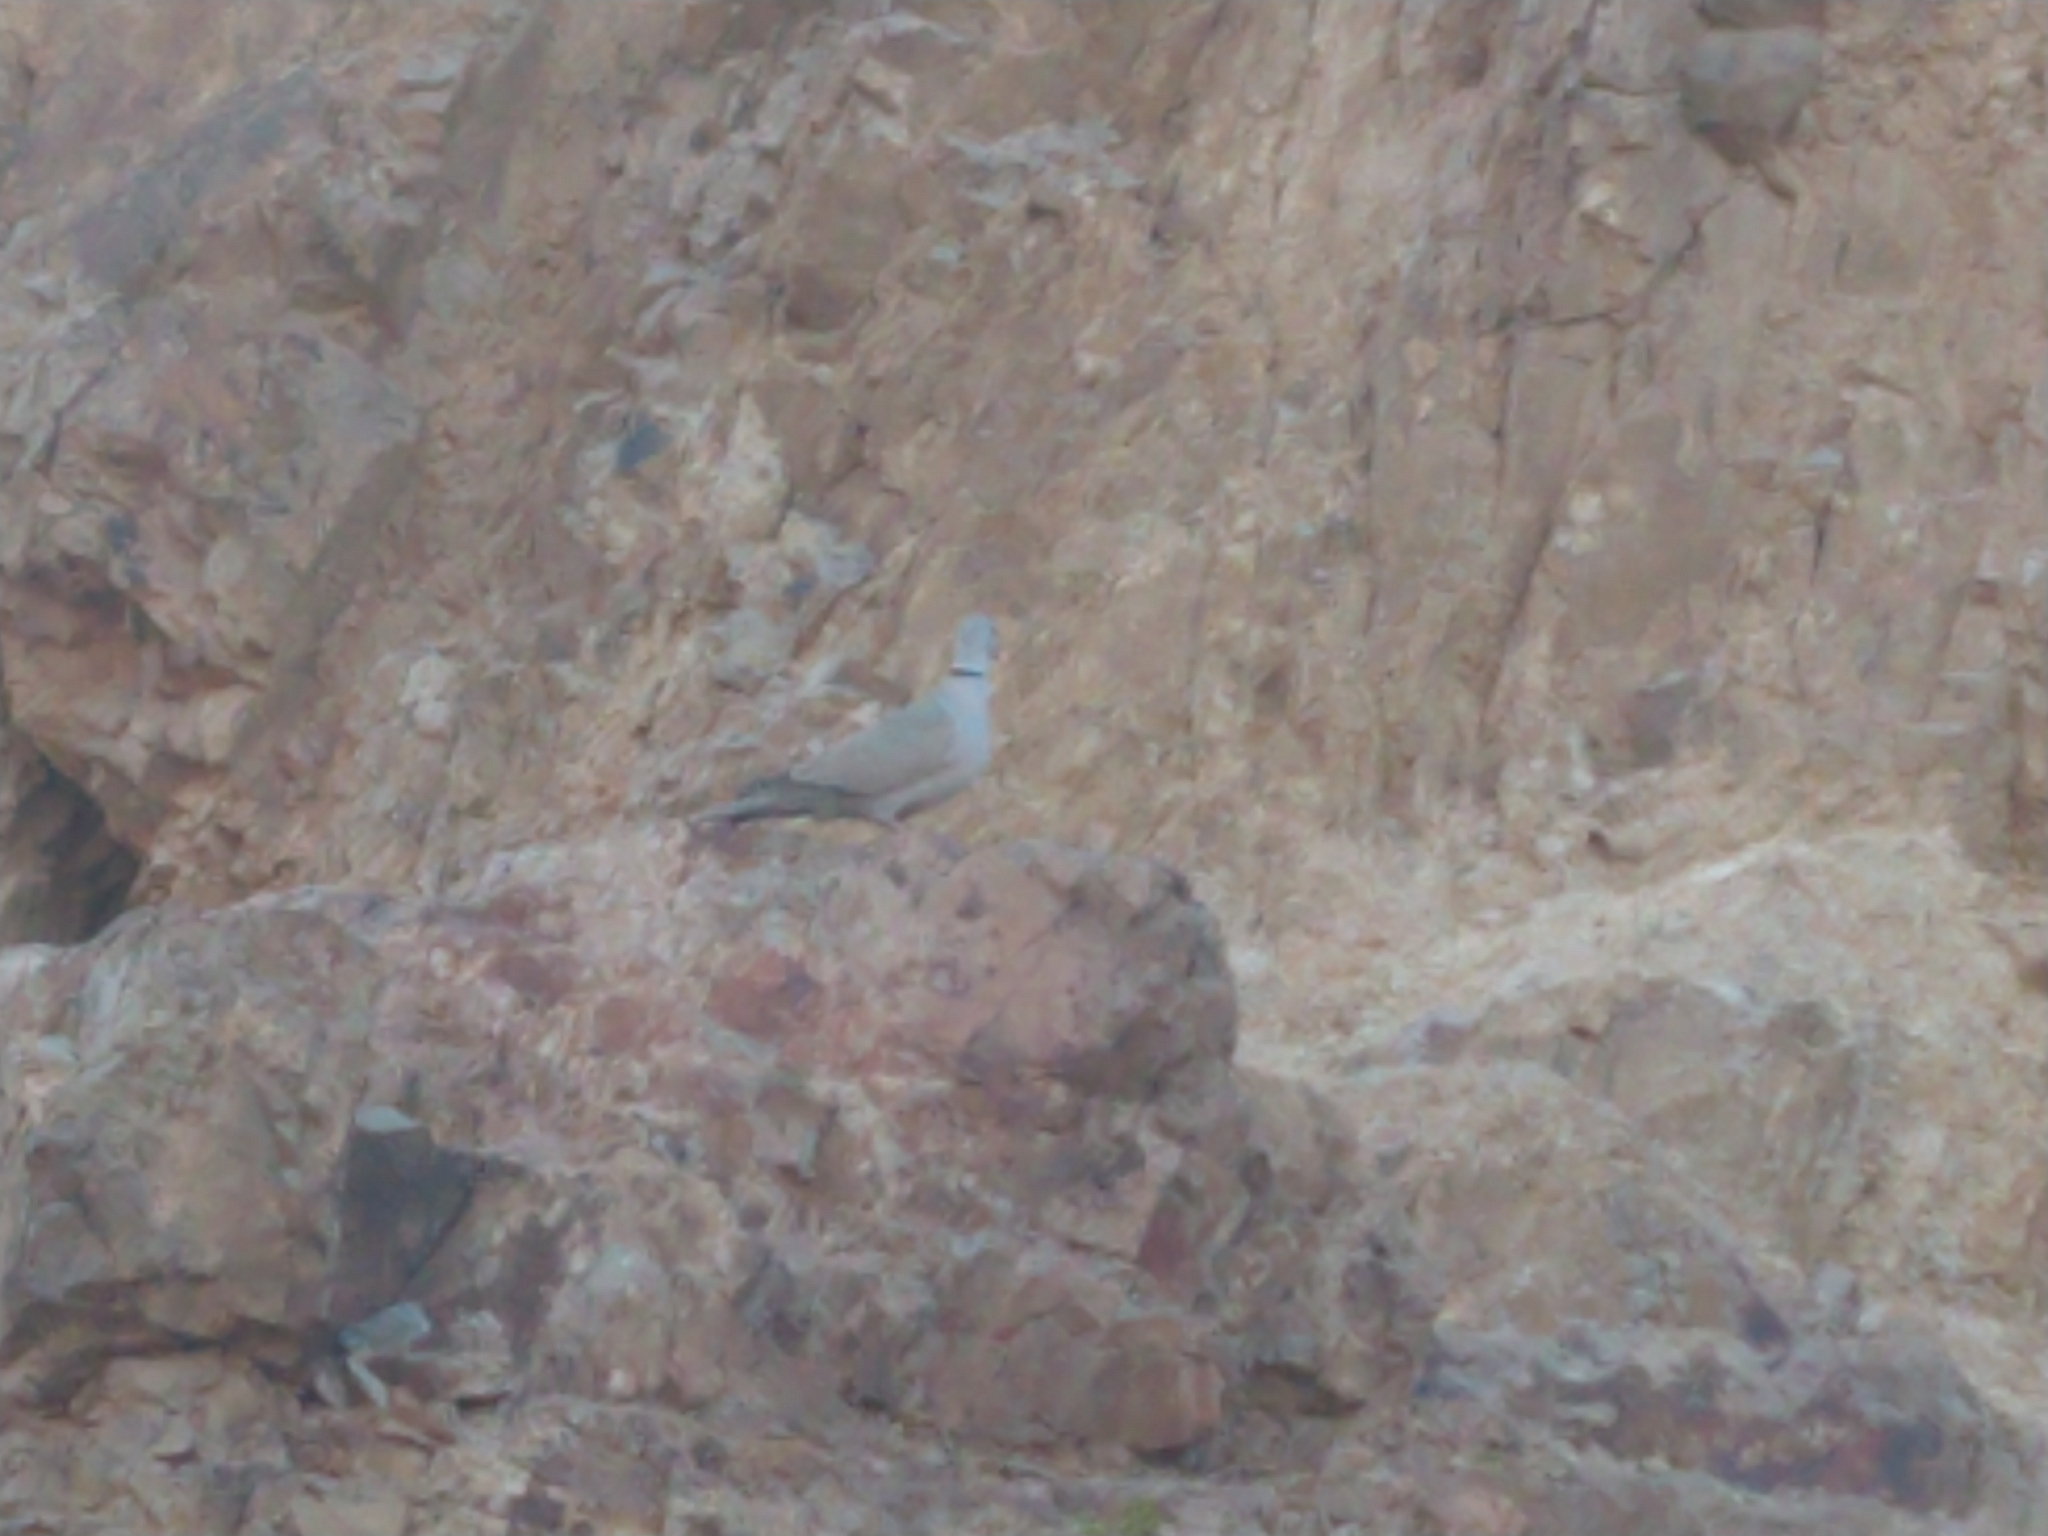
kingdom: Animalia
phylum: Chordata
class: Aves
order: Columbiformes
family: Columbidae
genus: Streptopelia
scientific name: Streptopelia decaocto
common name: Eurasian collared dove
